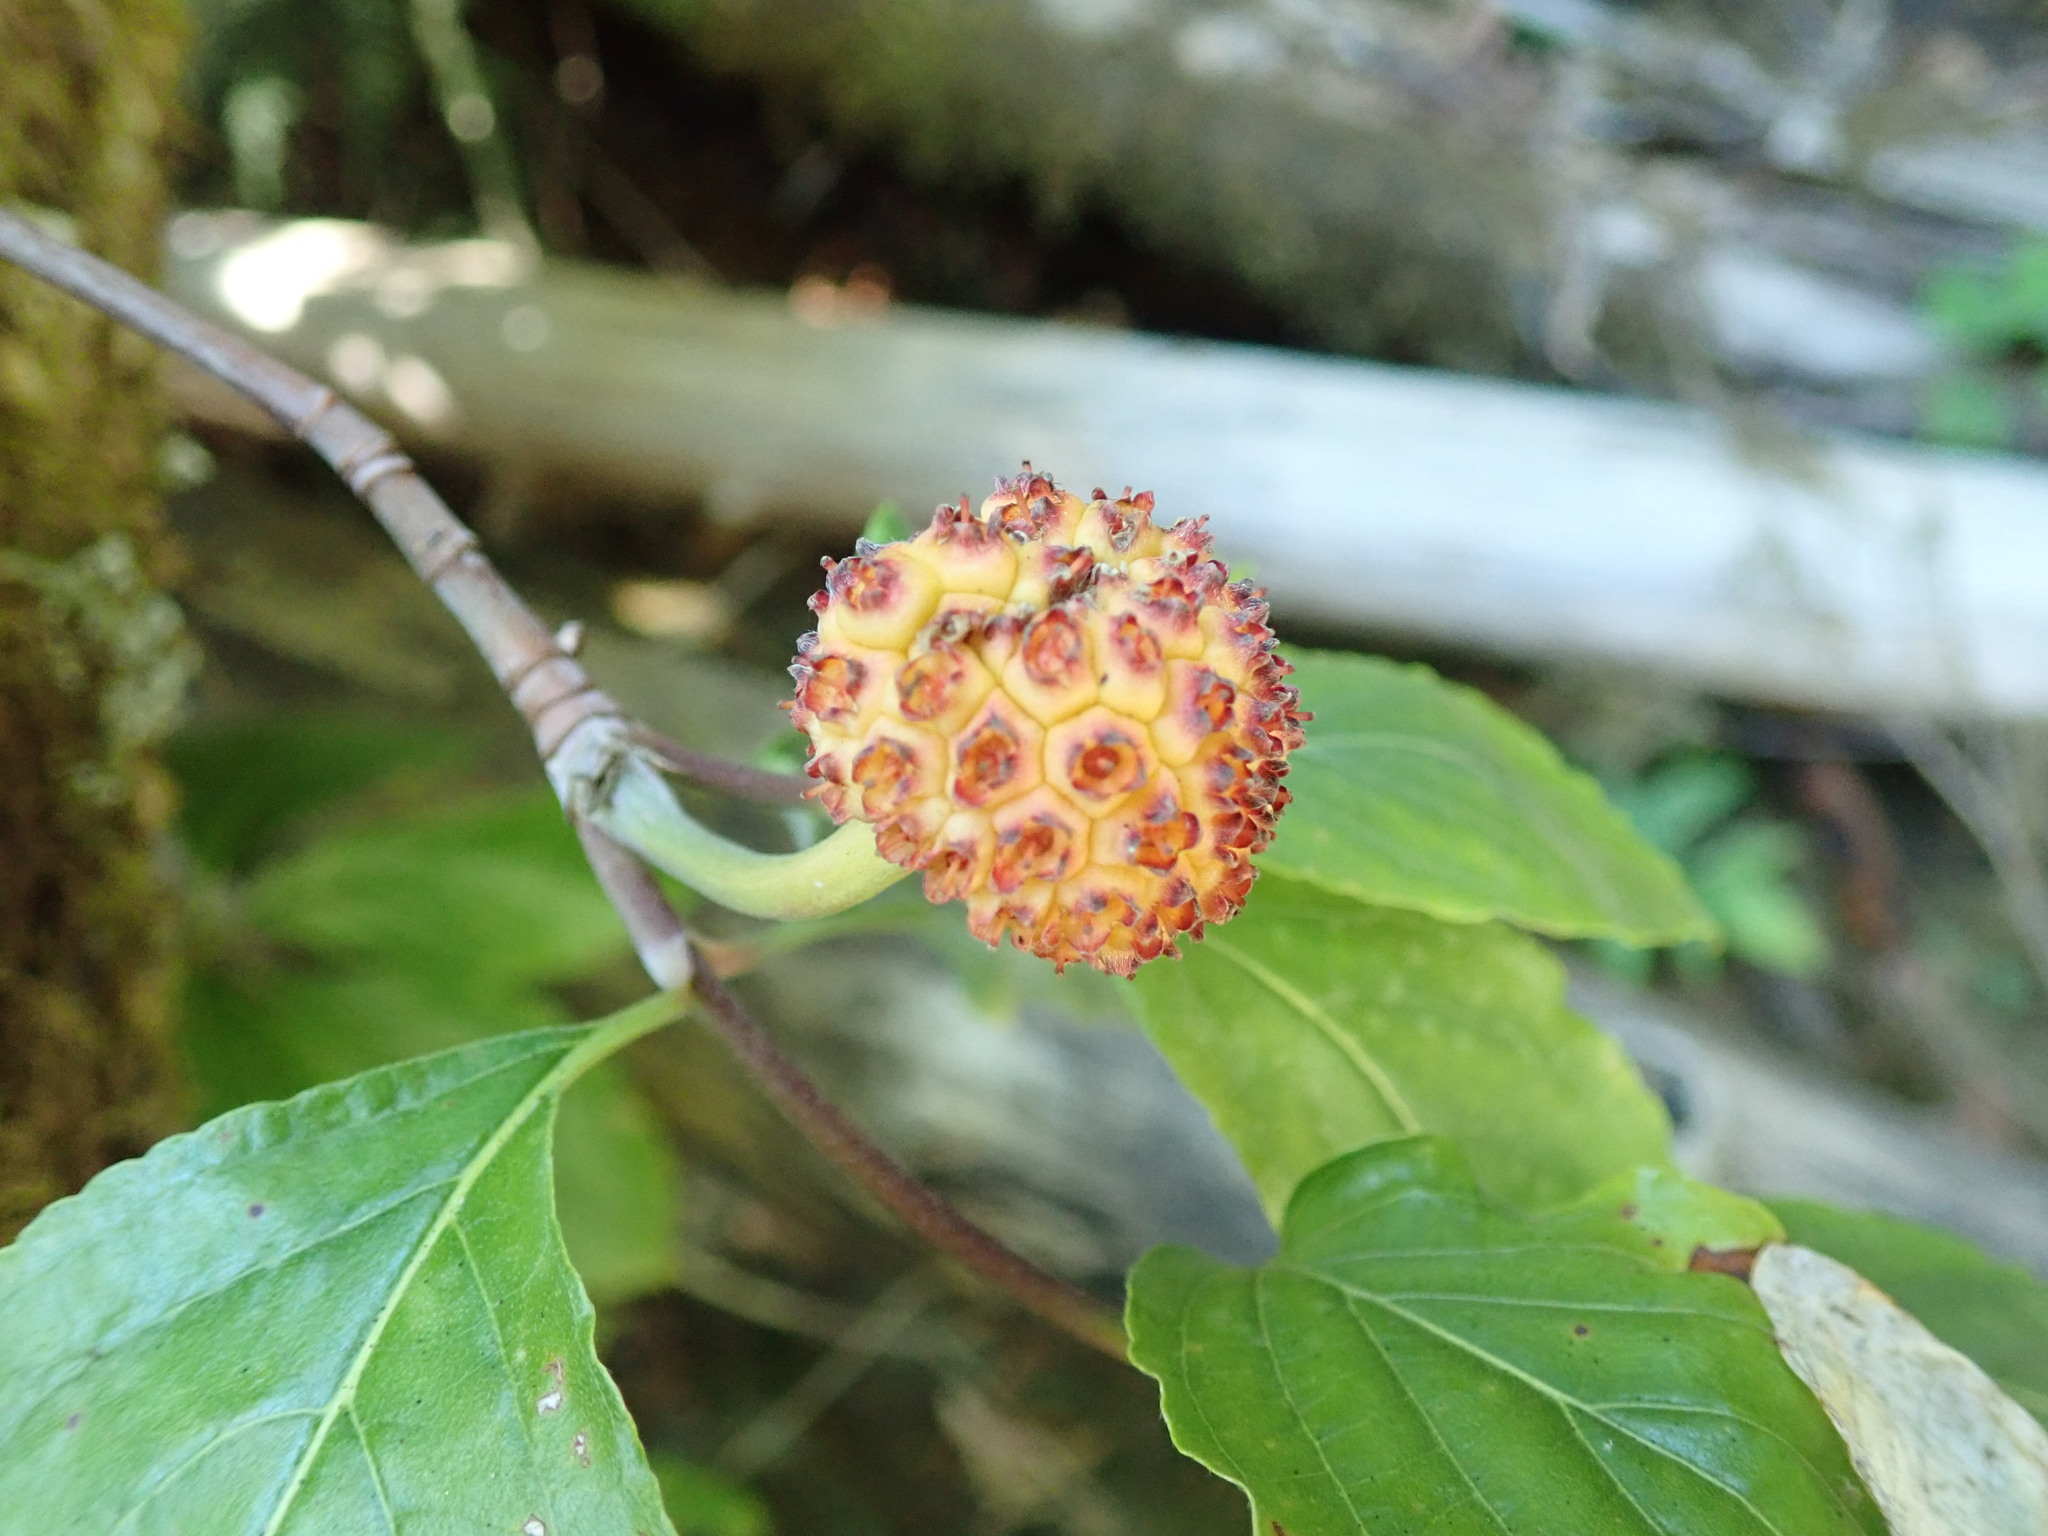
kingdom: Plantae
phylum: Tracheophyta
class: Magnoliopsida
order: Cornales
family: Cornaceae
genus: Cornus
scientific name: Cornus nuttallii
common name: Pacific dogwood
